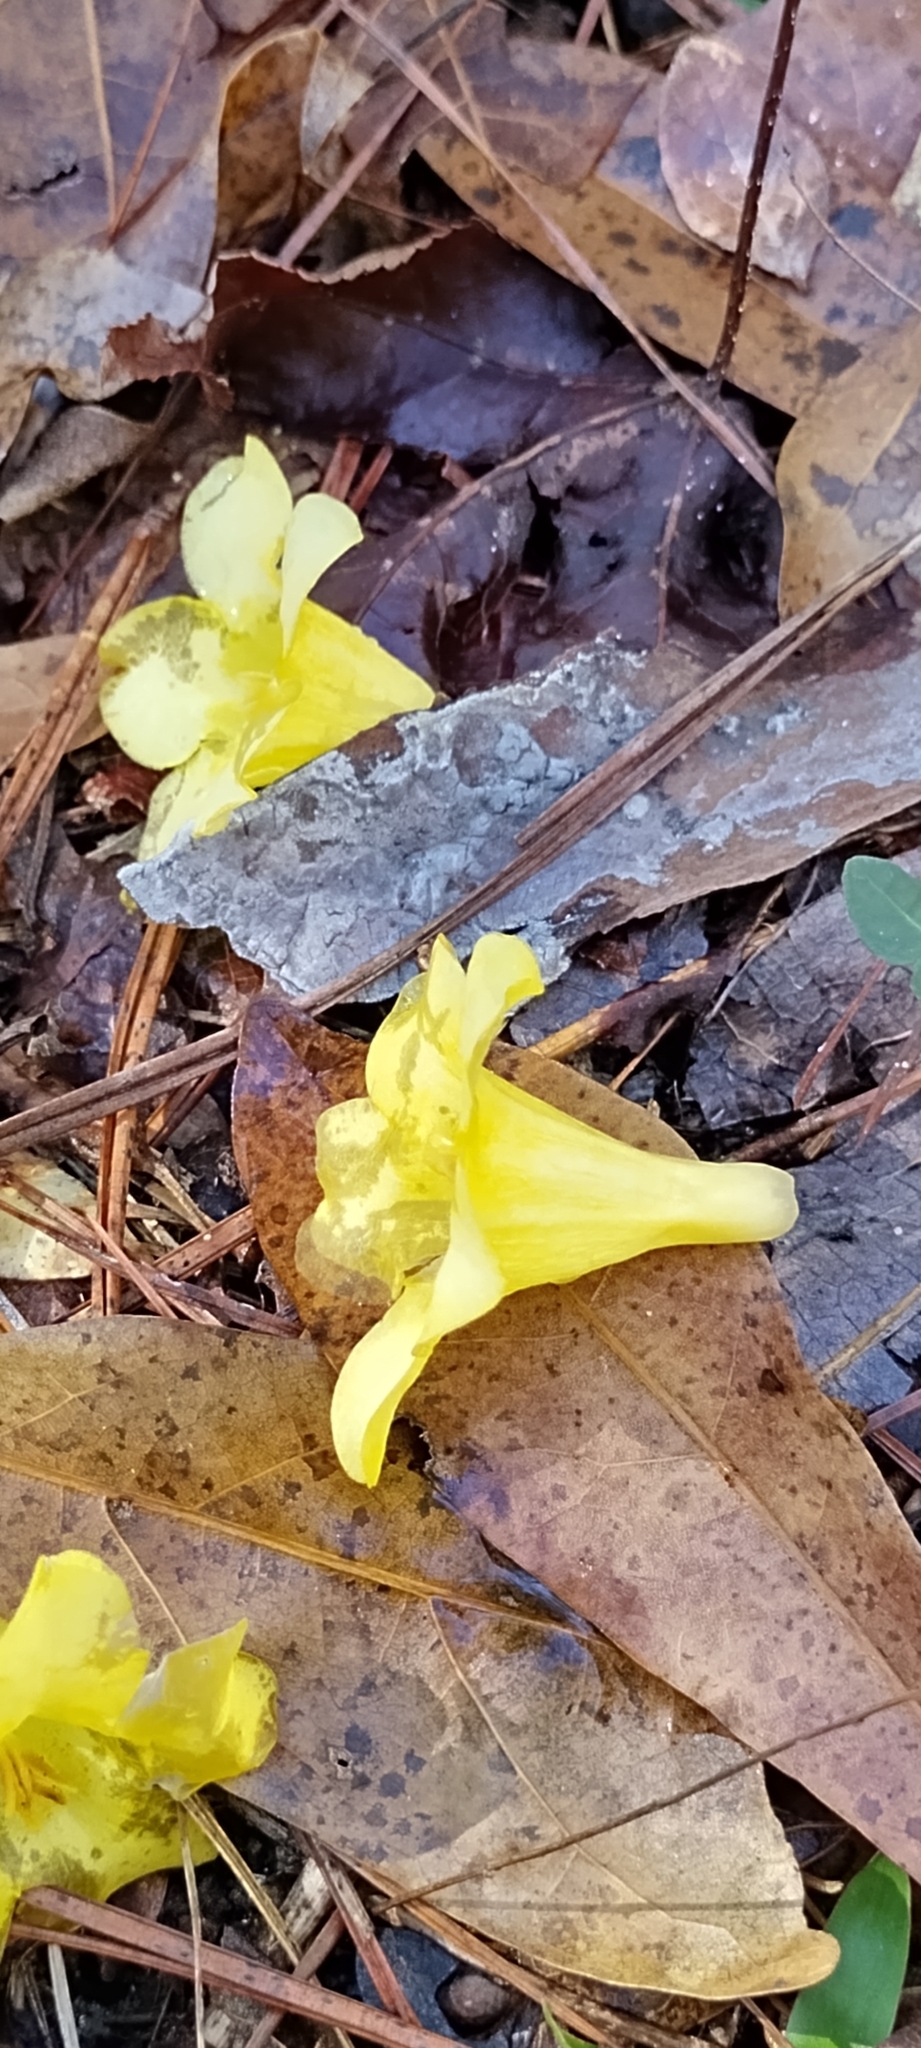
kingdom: Plantae
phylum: Tracheophyta
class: Magnoliopsida
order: Gentianales
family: Gelsemiaceae
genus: Gelsemium
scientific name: Gelsemium sempervirens
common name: Carolina-jasmine
